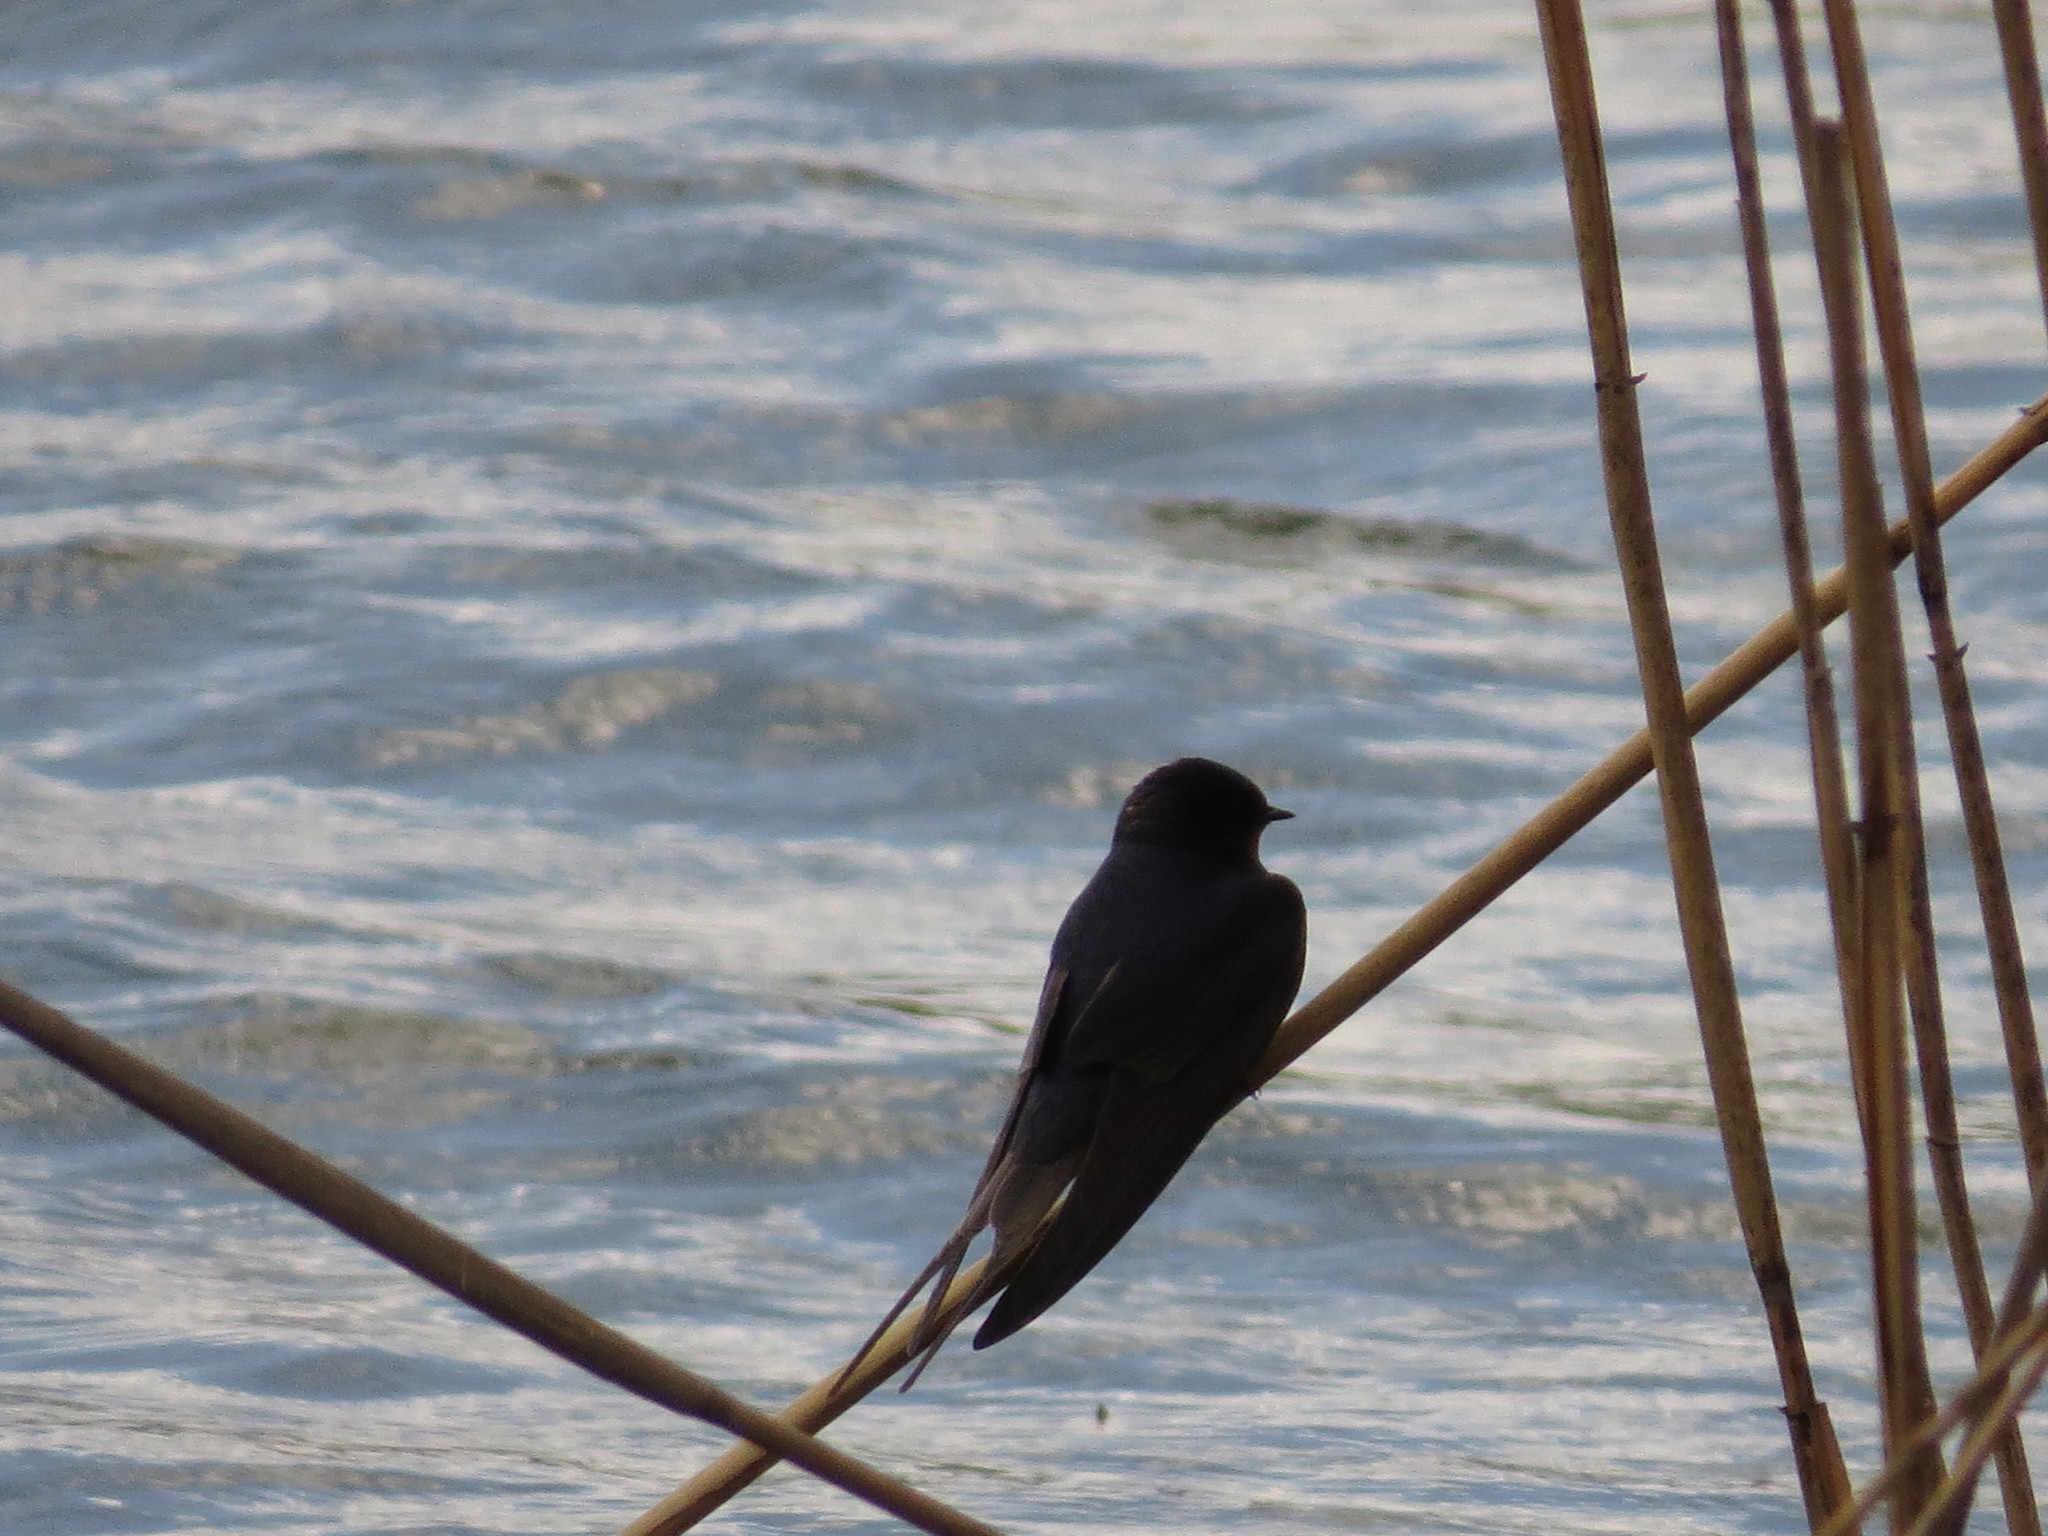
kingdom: Animalia
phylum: Chordata
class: Aves
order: Passeriformes
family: Hirundinidae
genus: Hirundo
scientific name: Hirundo rustica
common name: Barn swallow
